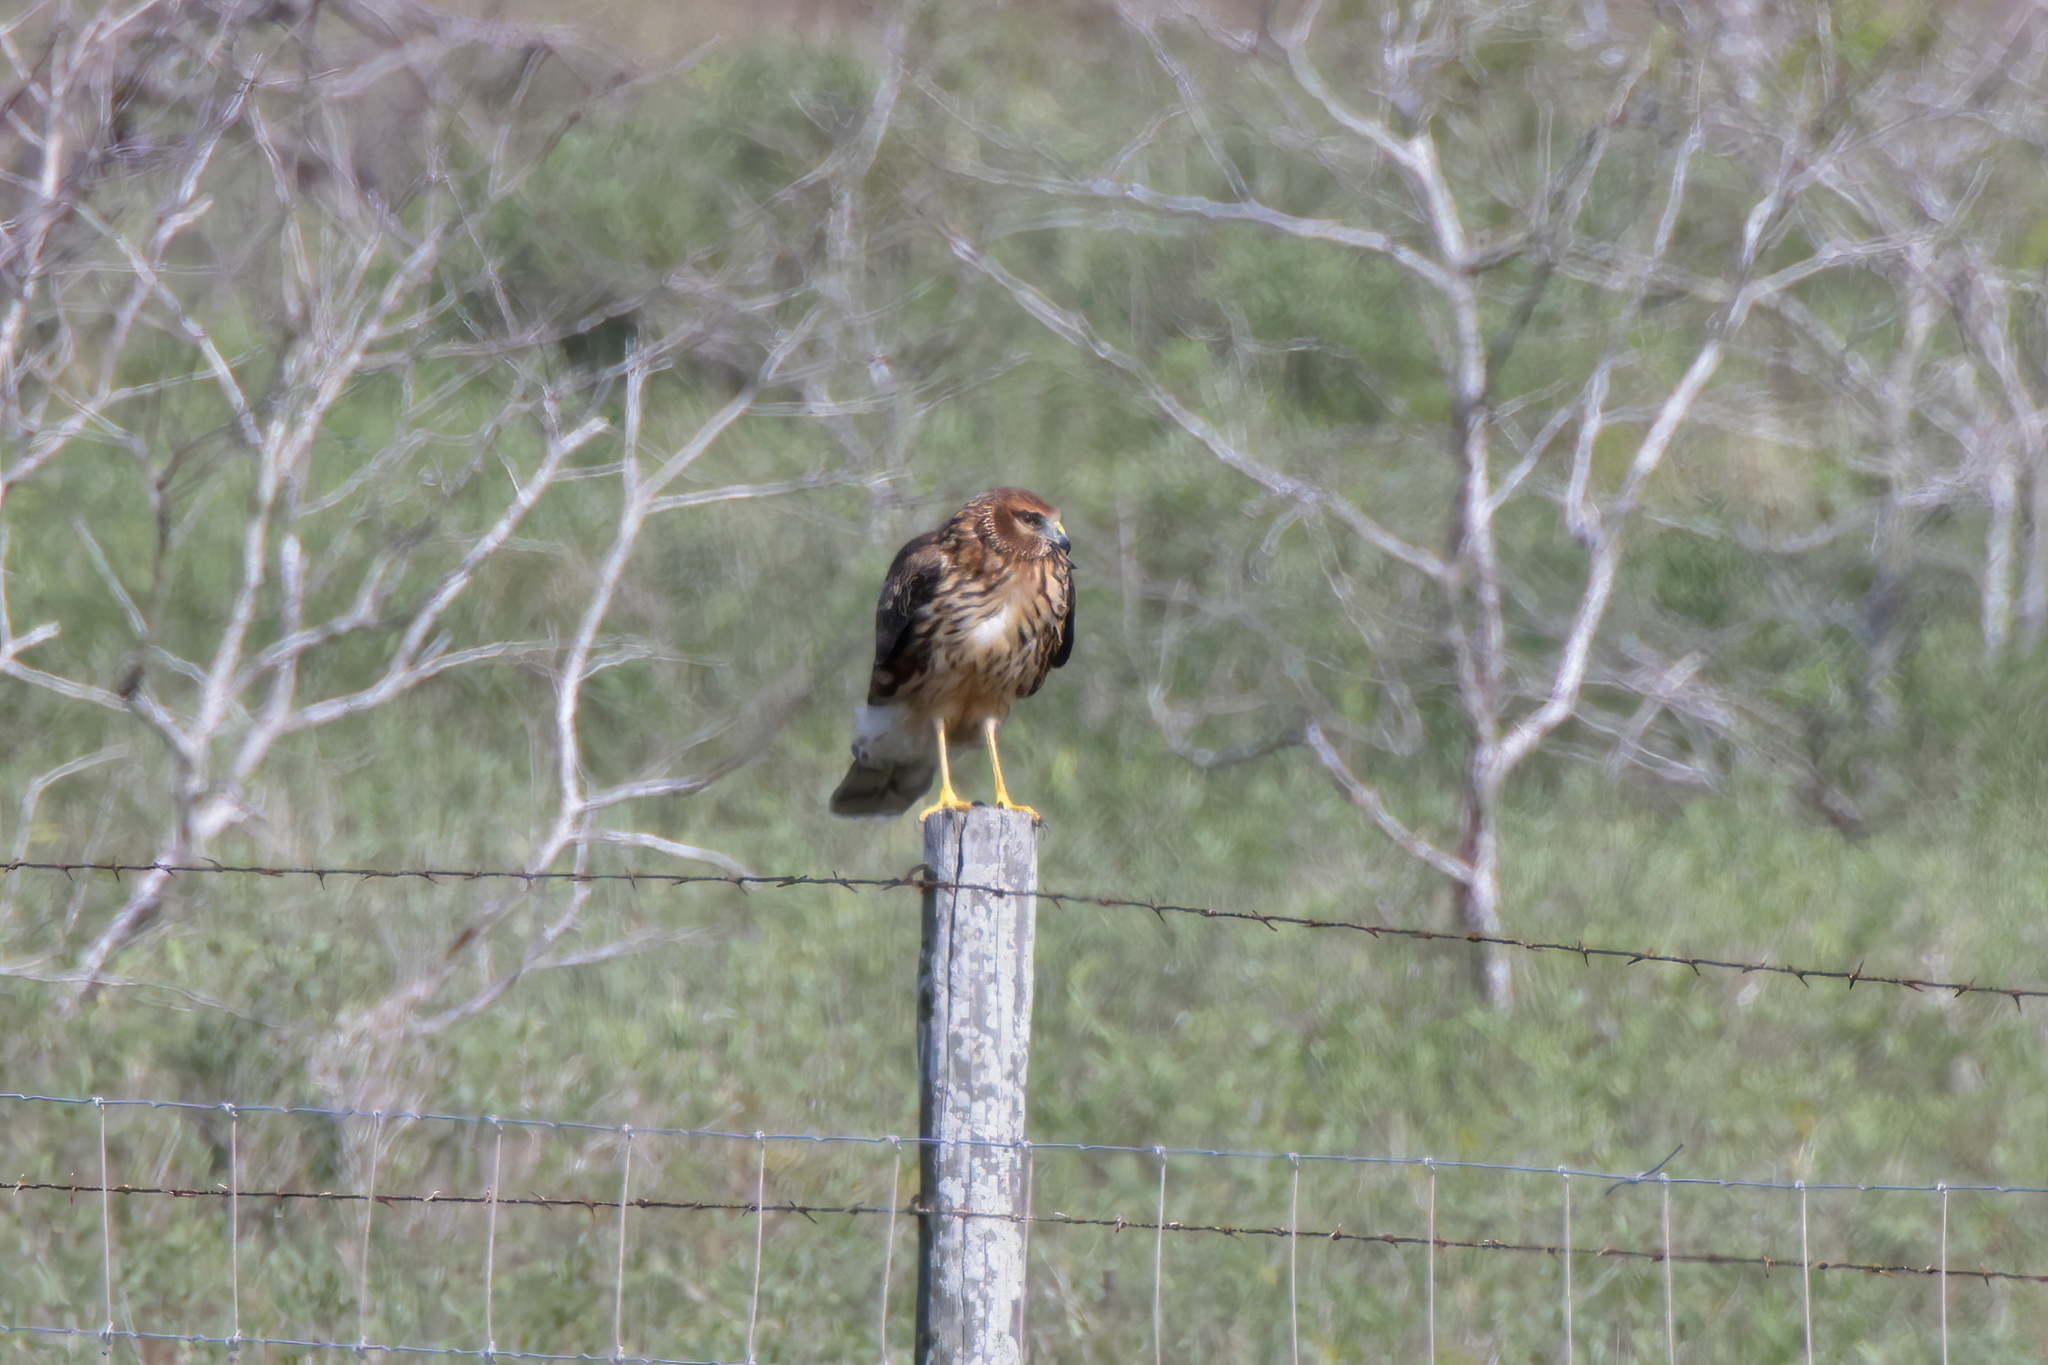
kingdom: Animalia
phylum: Chordata
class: Aves
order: Accipitriformes
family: Accipitridae
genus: Circus
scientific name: Circus cyaneus
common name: Hen harrier
